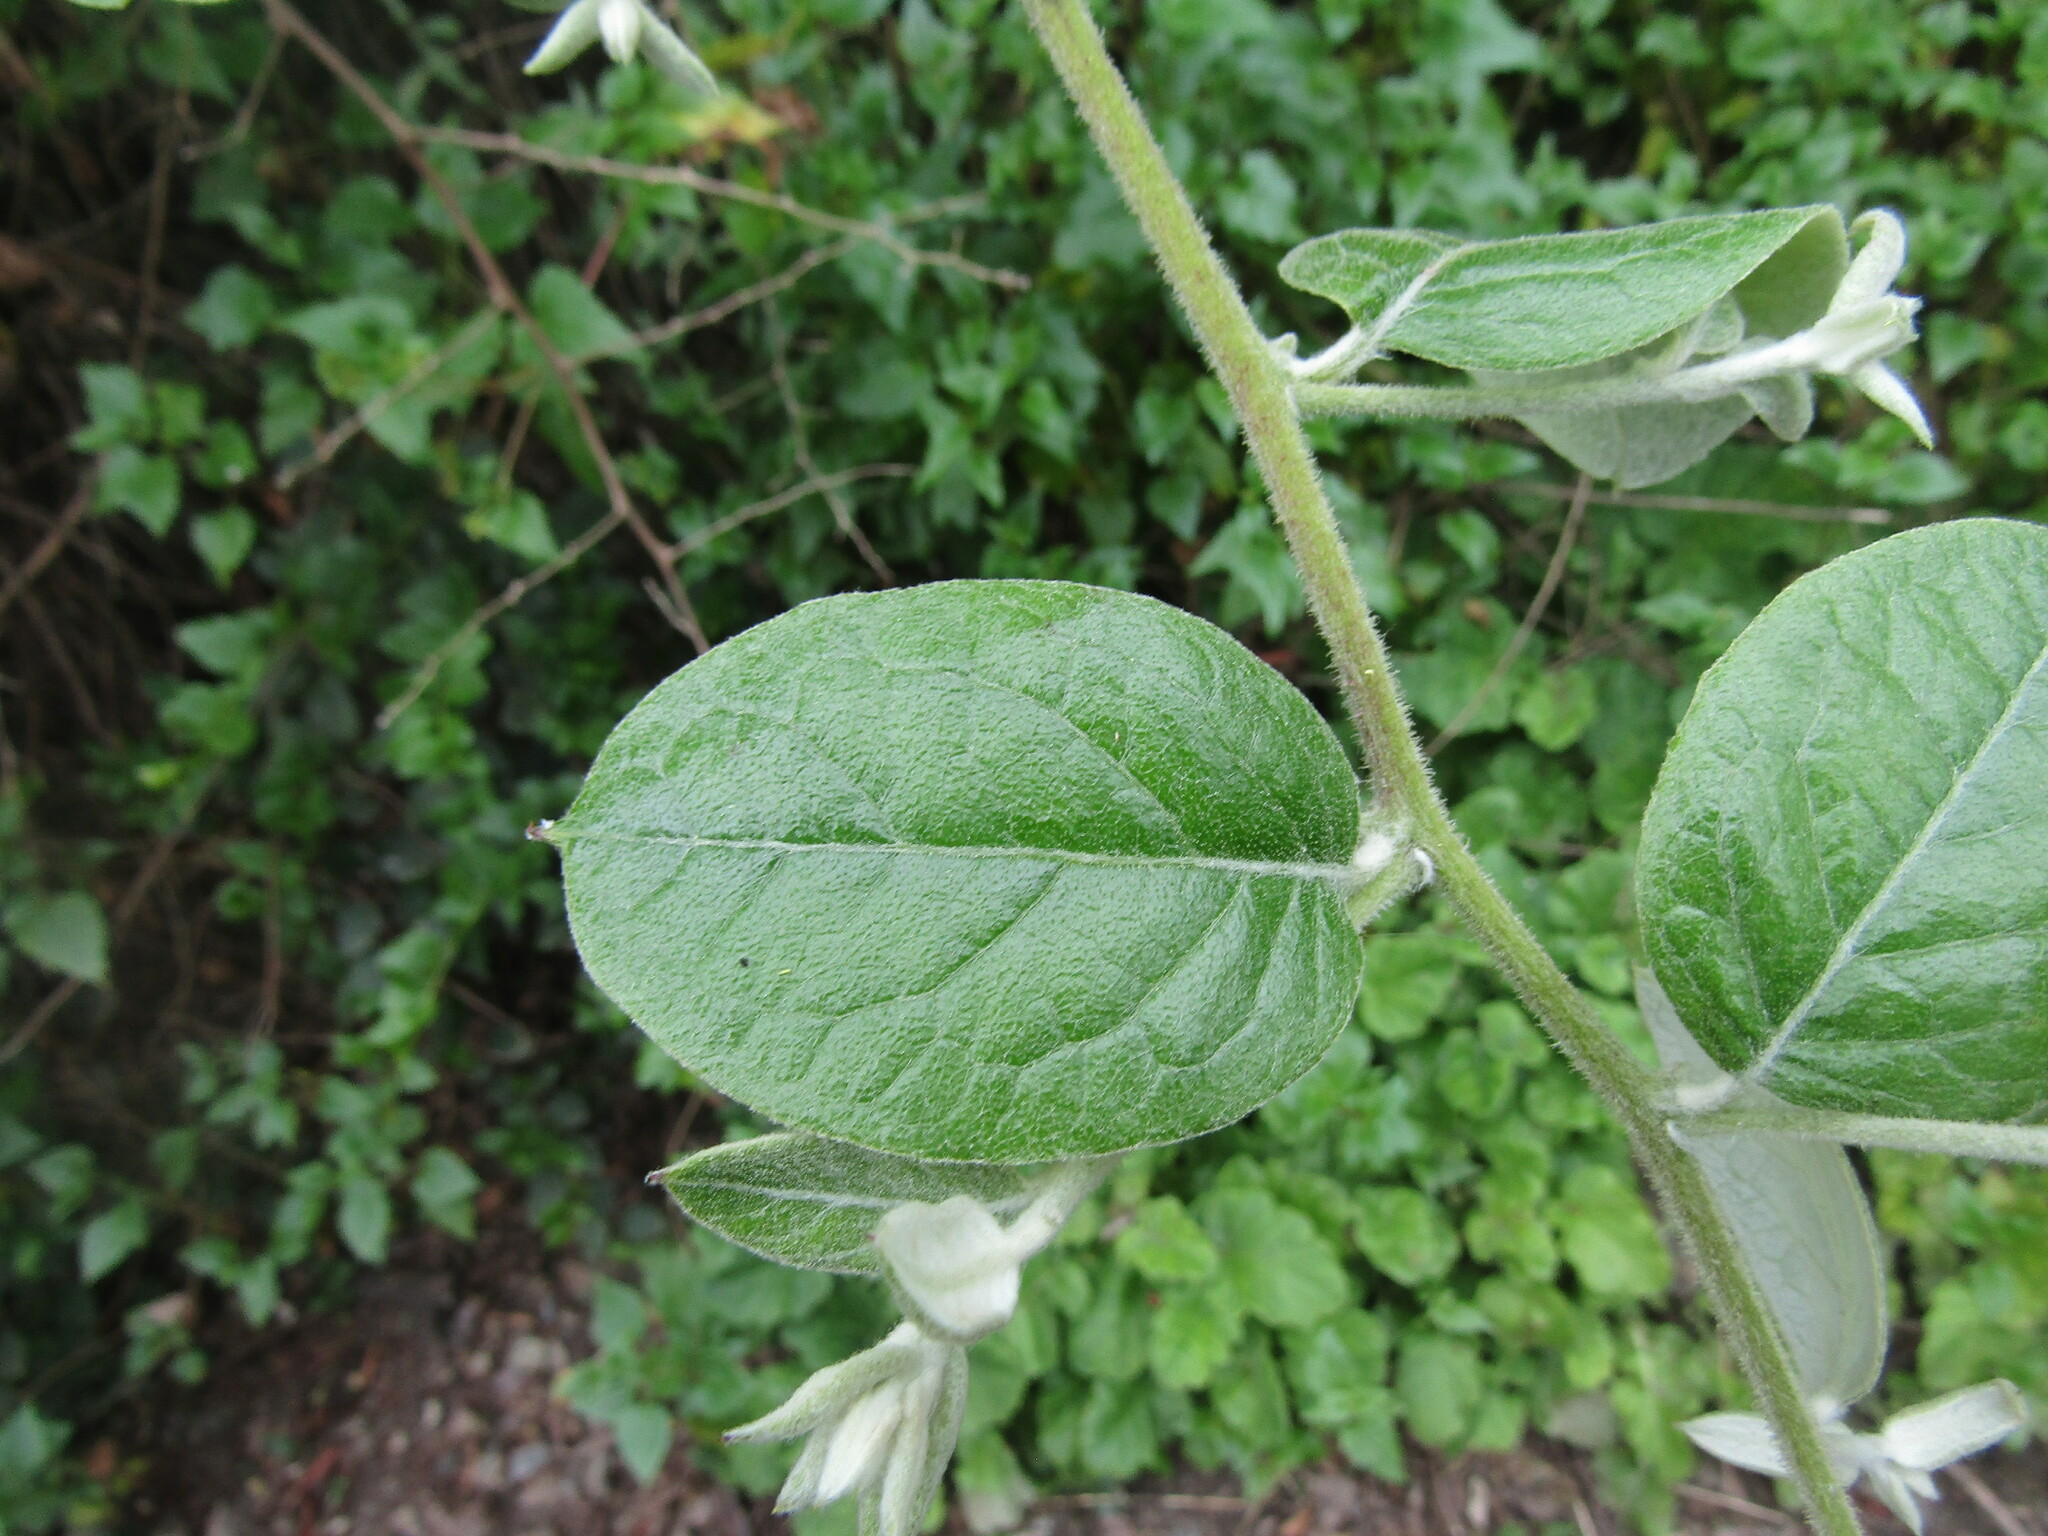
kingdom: Plantae
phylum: Tracheophyta
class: Magnoliopsida
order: Asterales
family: Asteraceae
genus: Proustia
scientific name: Proustia pyrifolia
